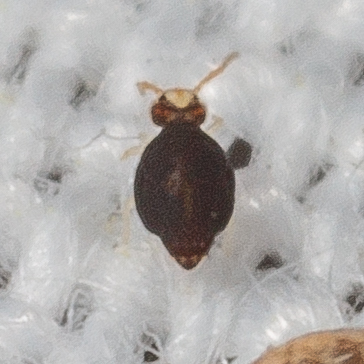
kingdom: Animalia
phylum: Arthropoda
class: Collembola
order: Symphypleona
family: Katiannidae
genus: Sminthurinus
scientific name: Sminthurinus minutus
